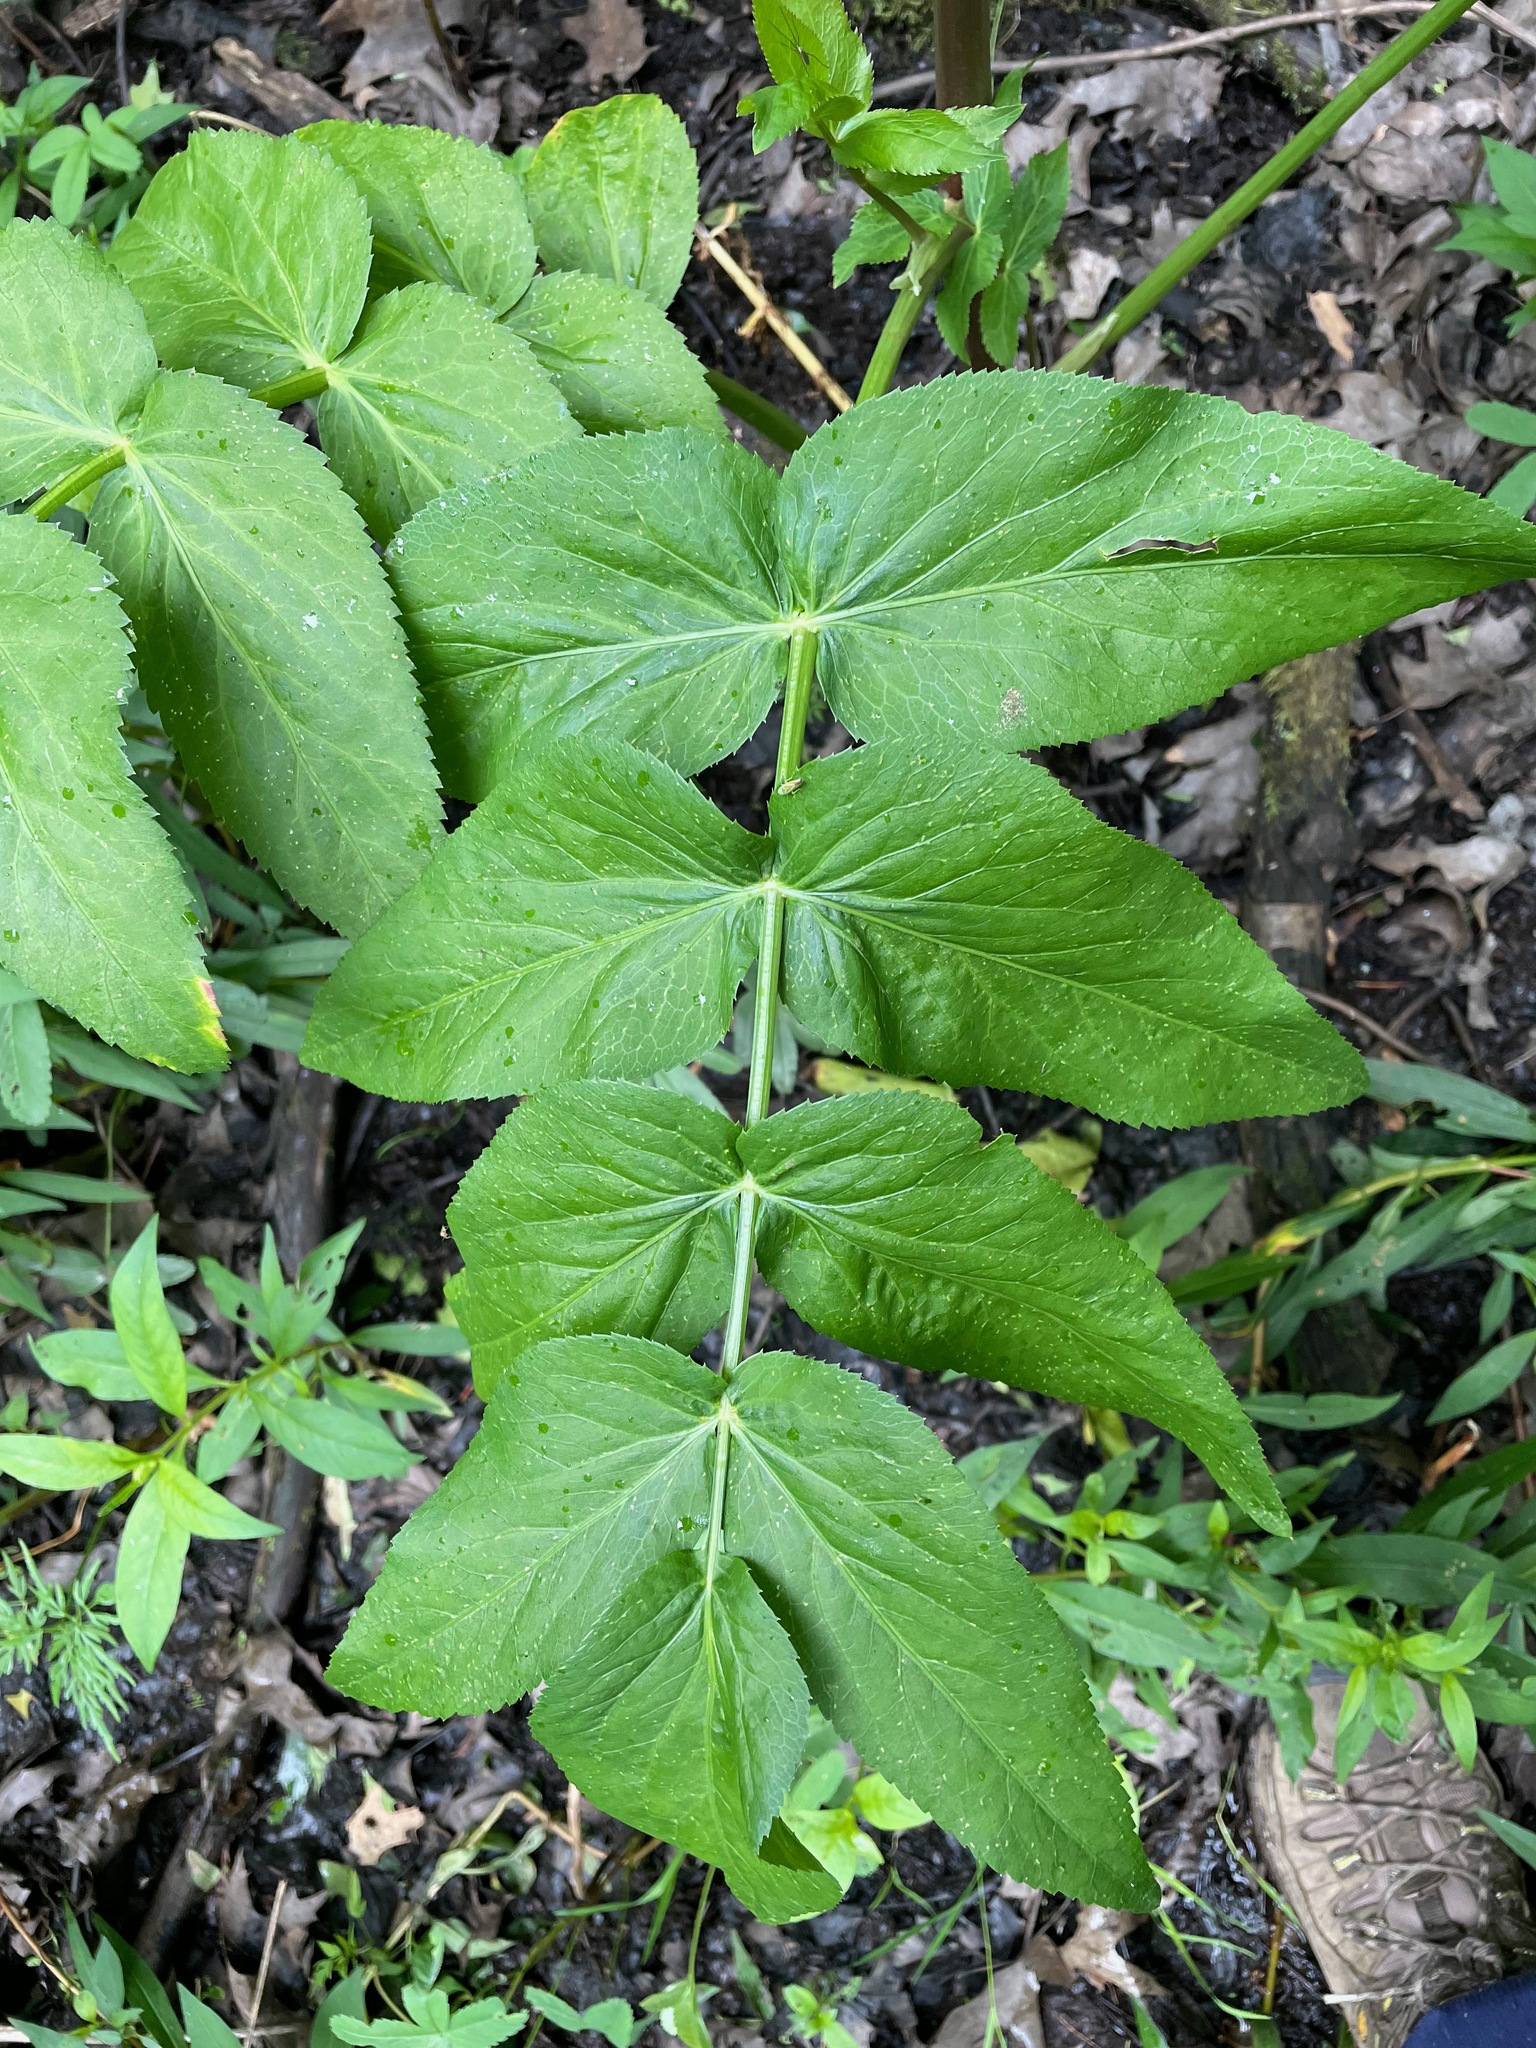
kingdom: Plantae
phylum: Tracheophyta
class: Magnoliopsida
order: Apiales
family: Apiaceae
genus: Sium
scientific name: Sium suave
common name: Hemlock water-parsnip
